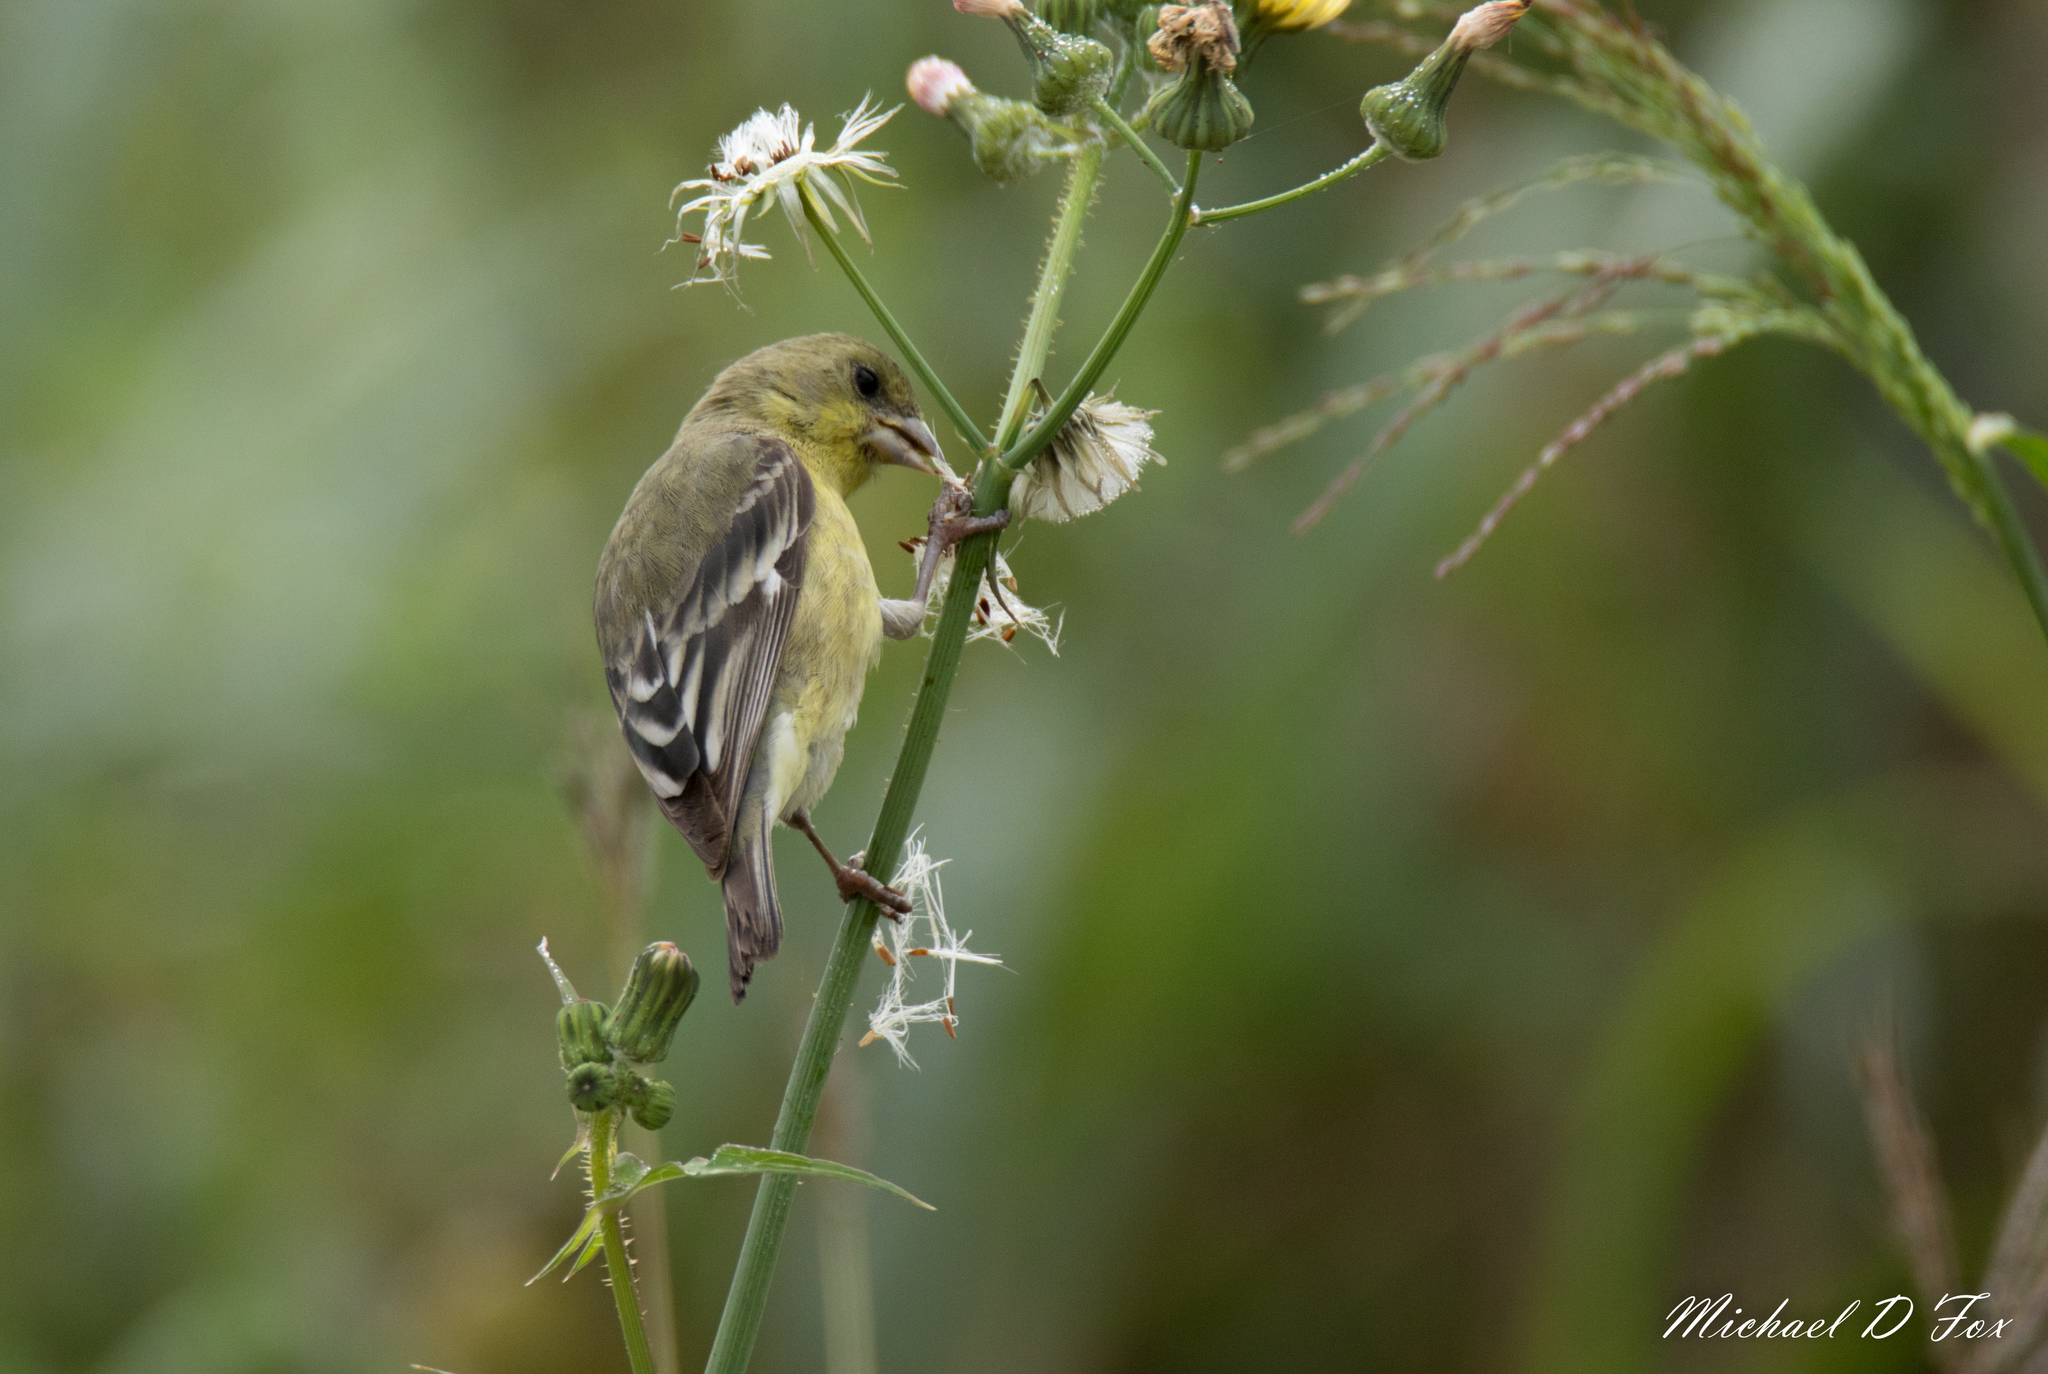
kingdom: Animalia
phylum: Chordata
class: Aves
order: Passeriformes
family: Fringillidae
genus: Spinus
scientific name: Spinus psaltria
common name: Lesser goldfinch
